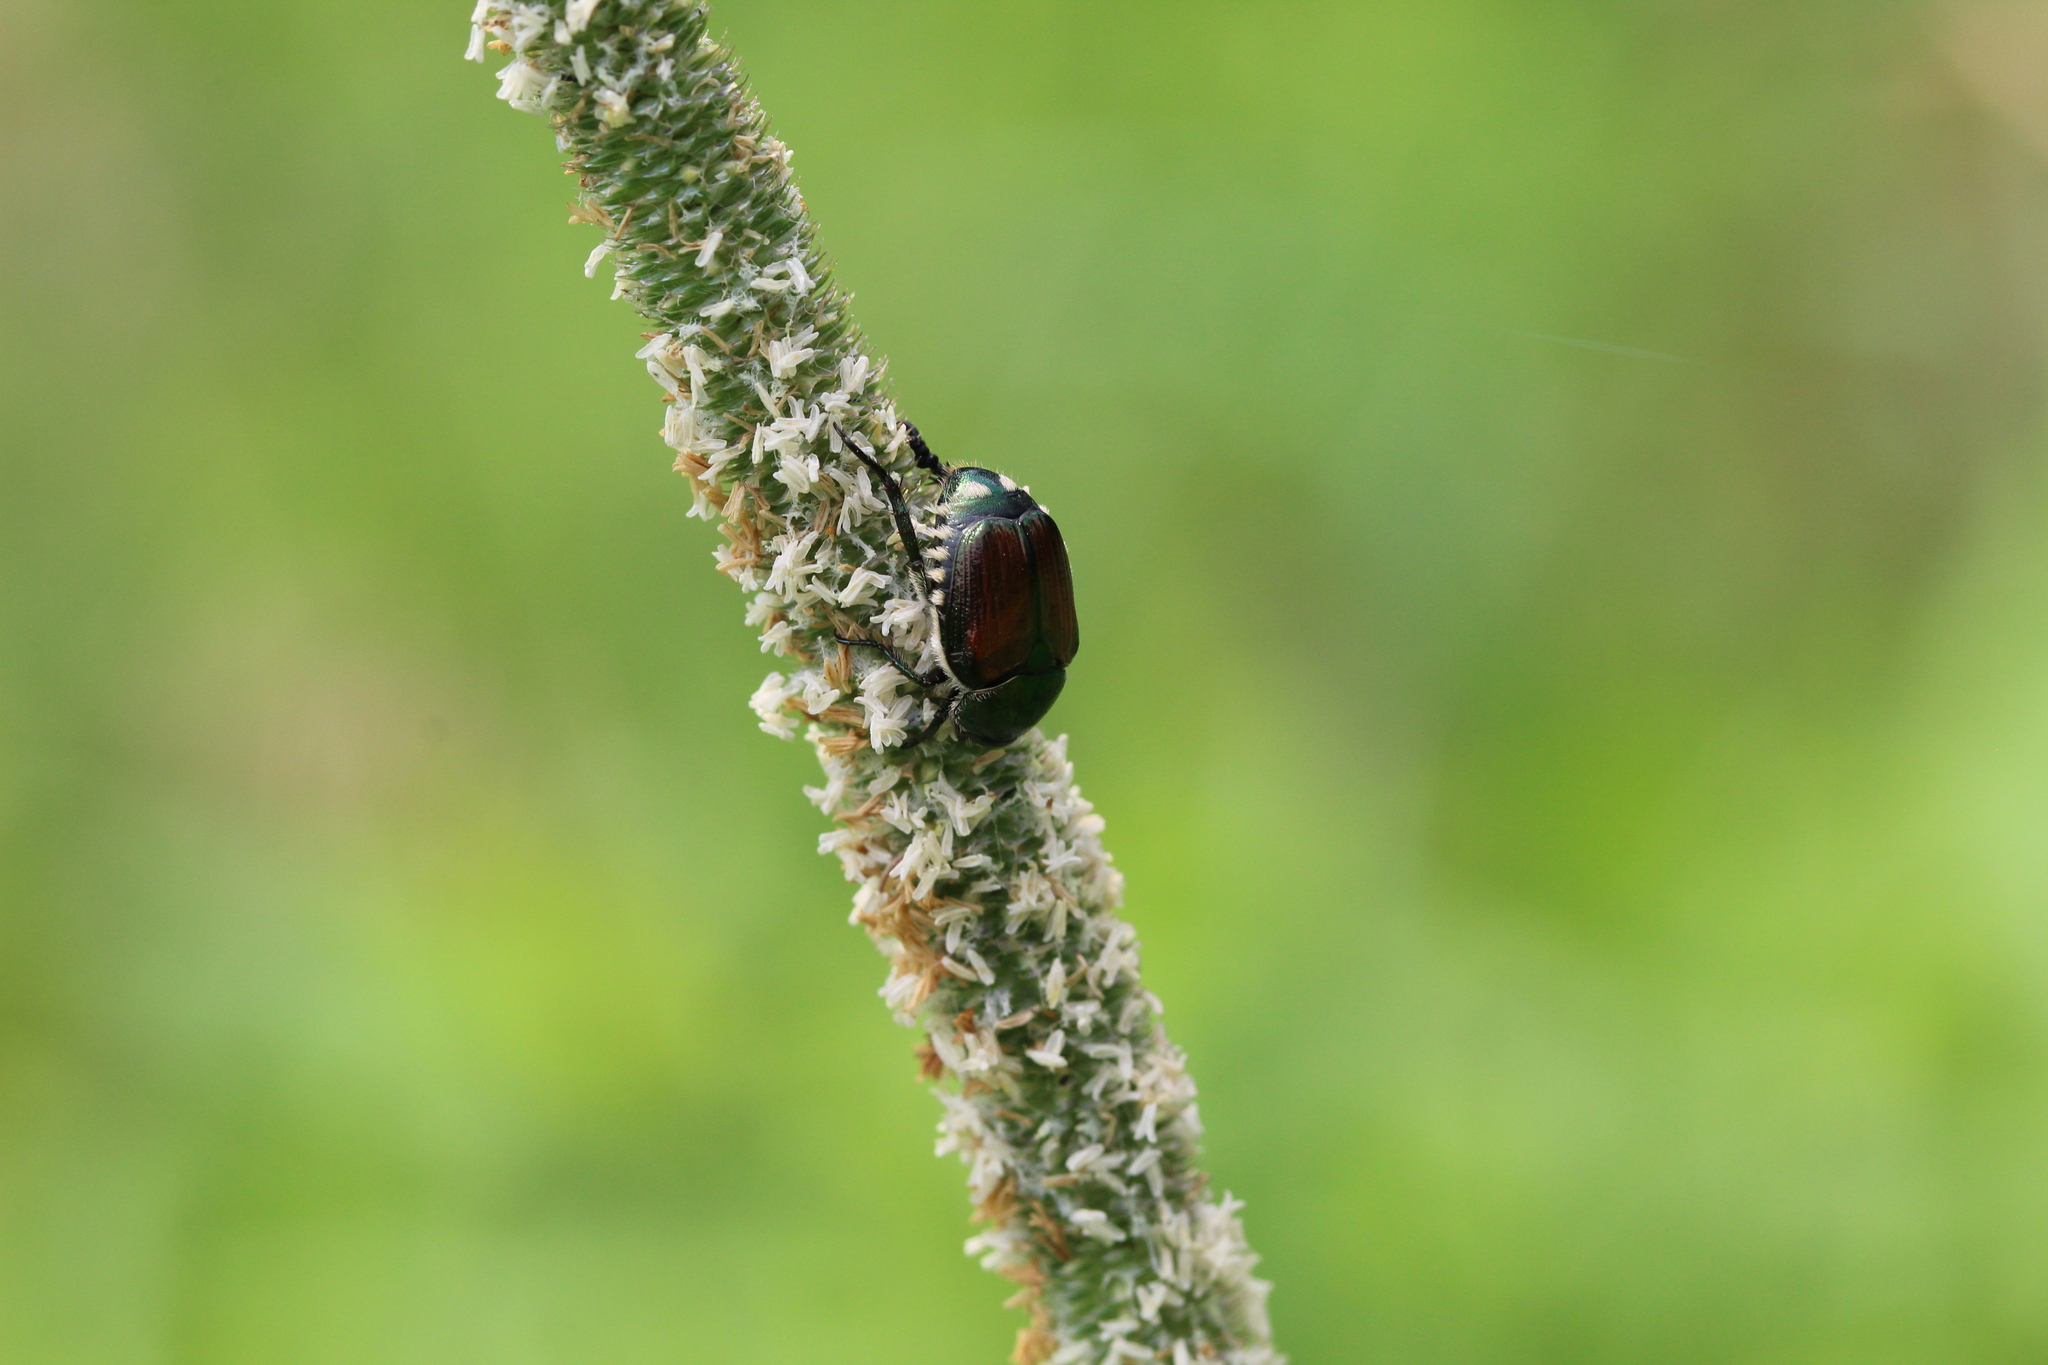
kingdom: Animalia
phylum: Arthropoda
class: Insecta
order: Coleoptera
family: Scarabaeidae
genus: Popillia
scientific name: Popillia japonica
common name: Japanese beetle
